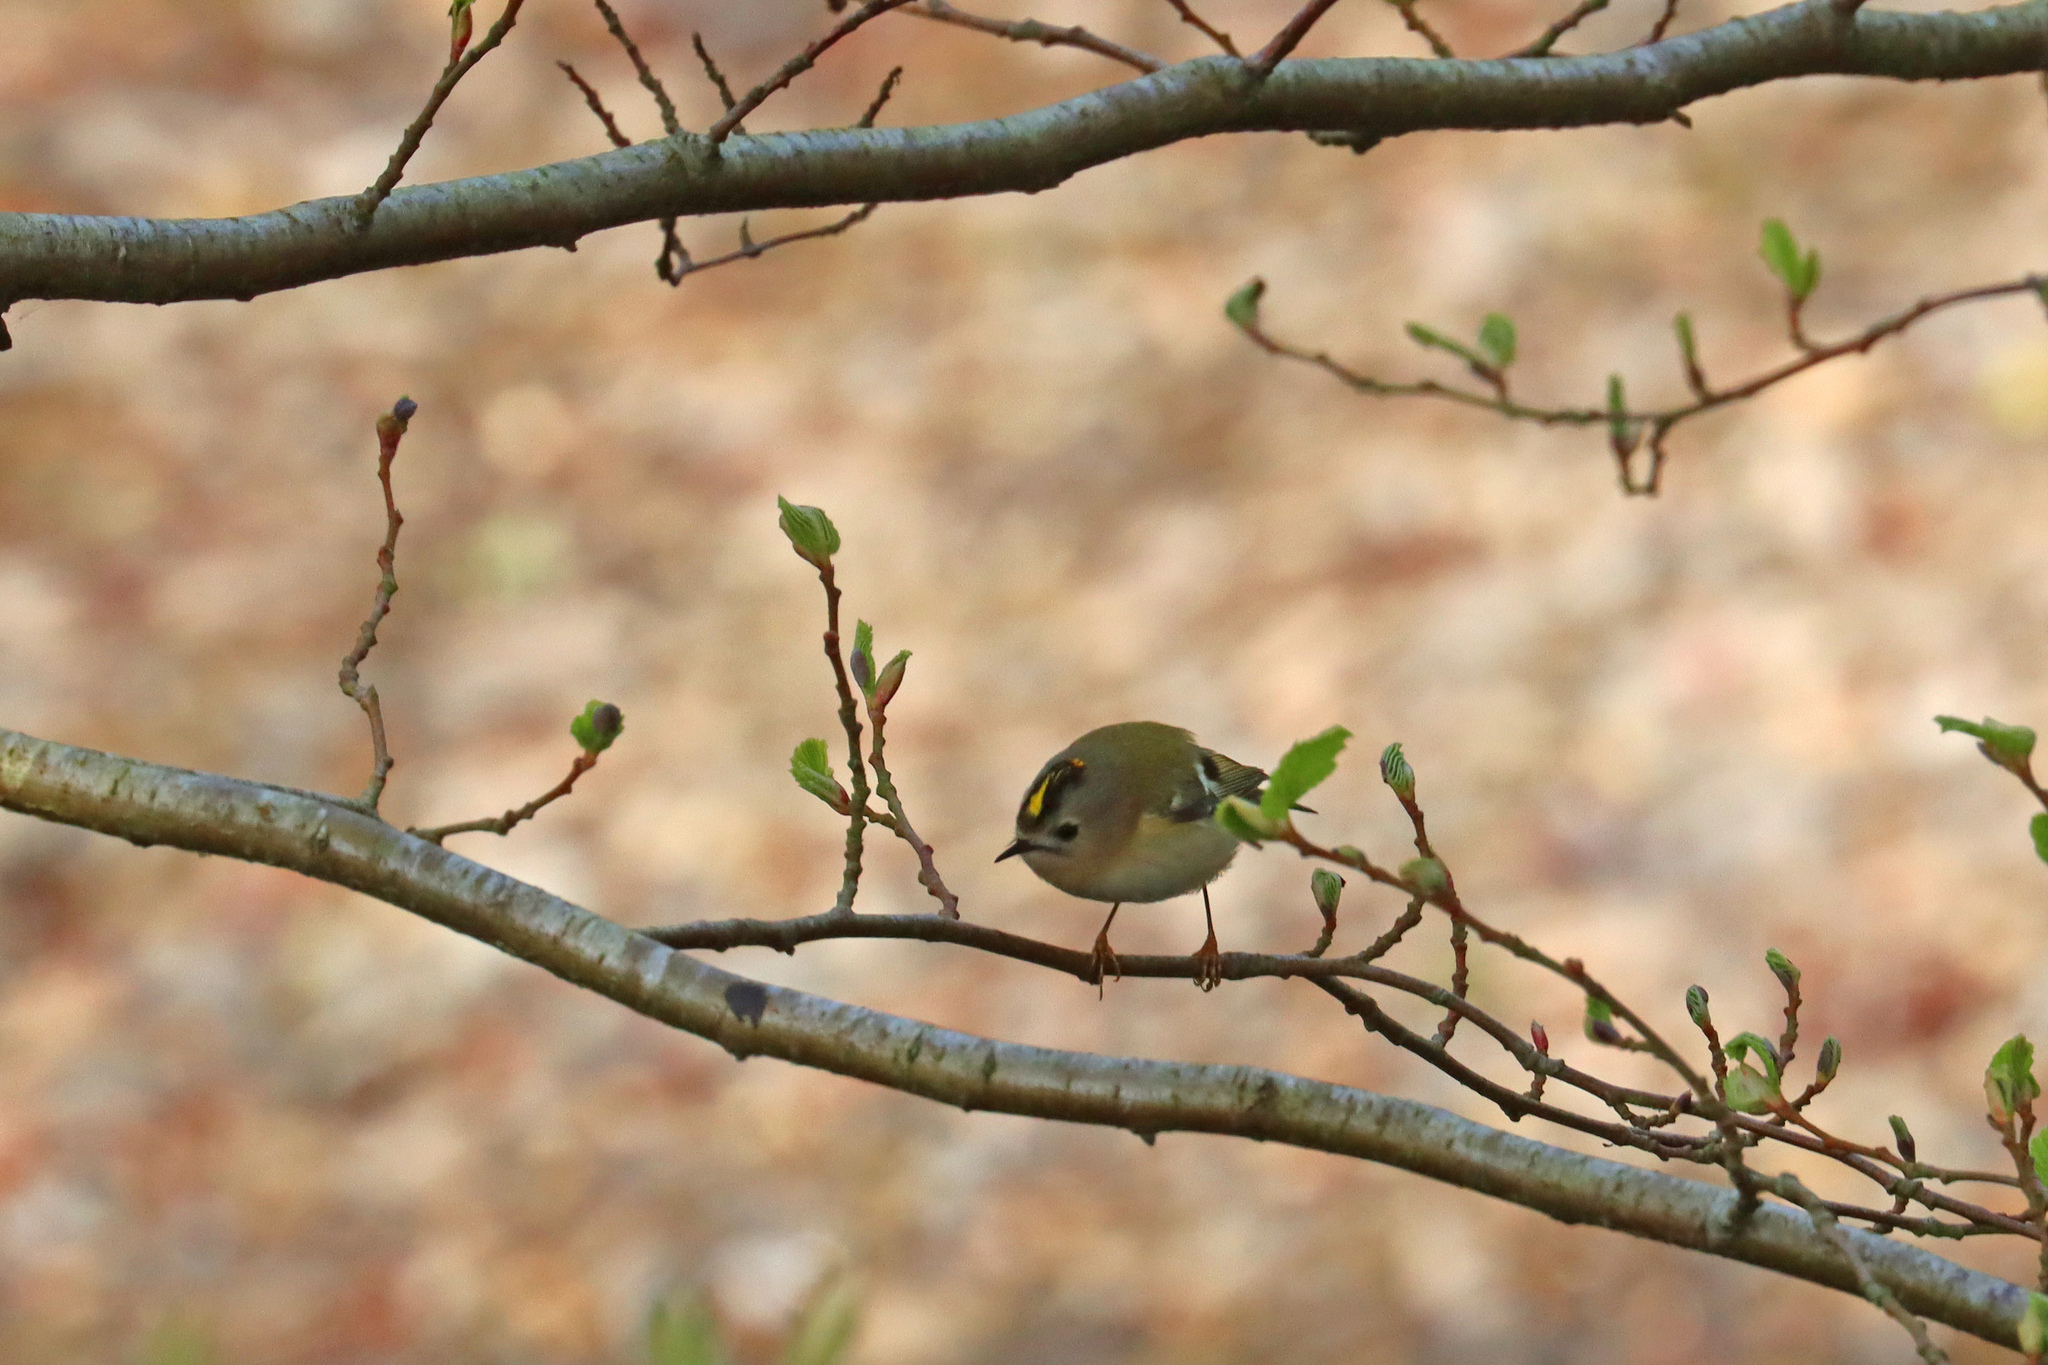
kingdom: Animalia
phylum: Chordata
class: Aves
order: Passeriformes
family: Regulidae
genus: Regulus
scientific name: Regulus regulus
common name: Goldcrest
